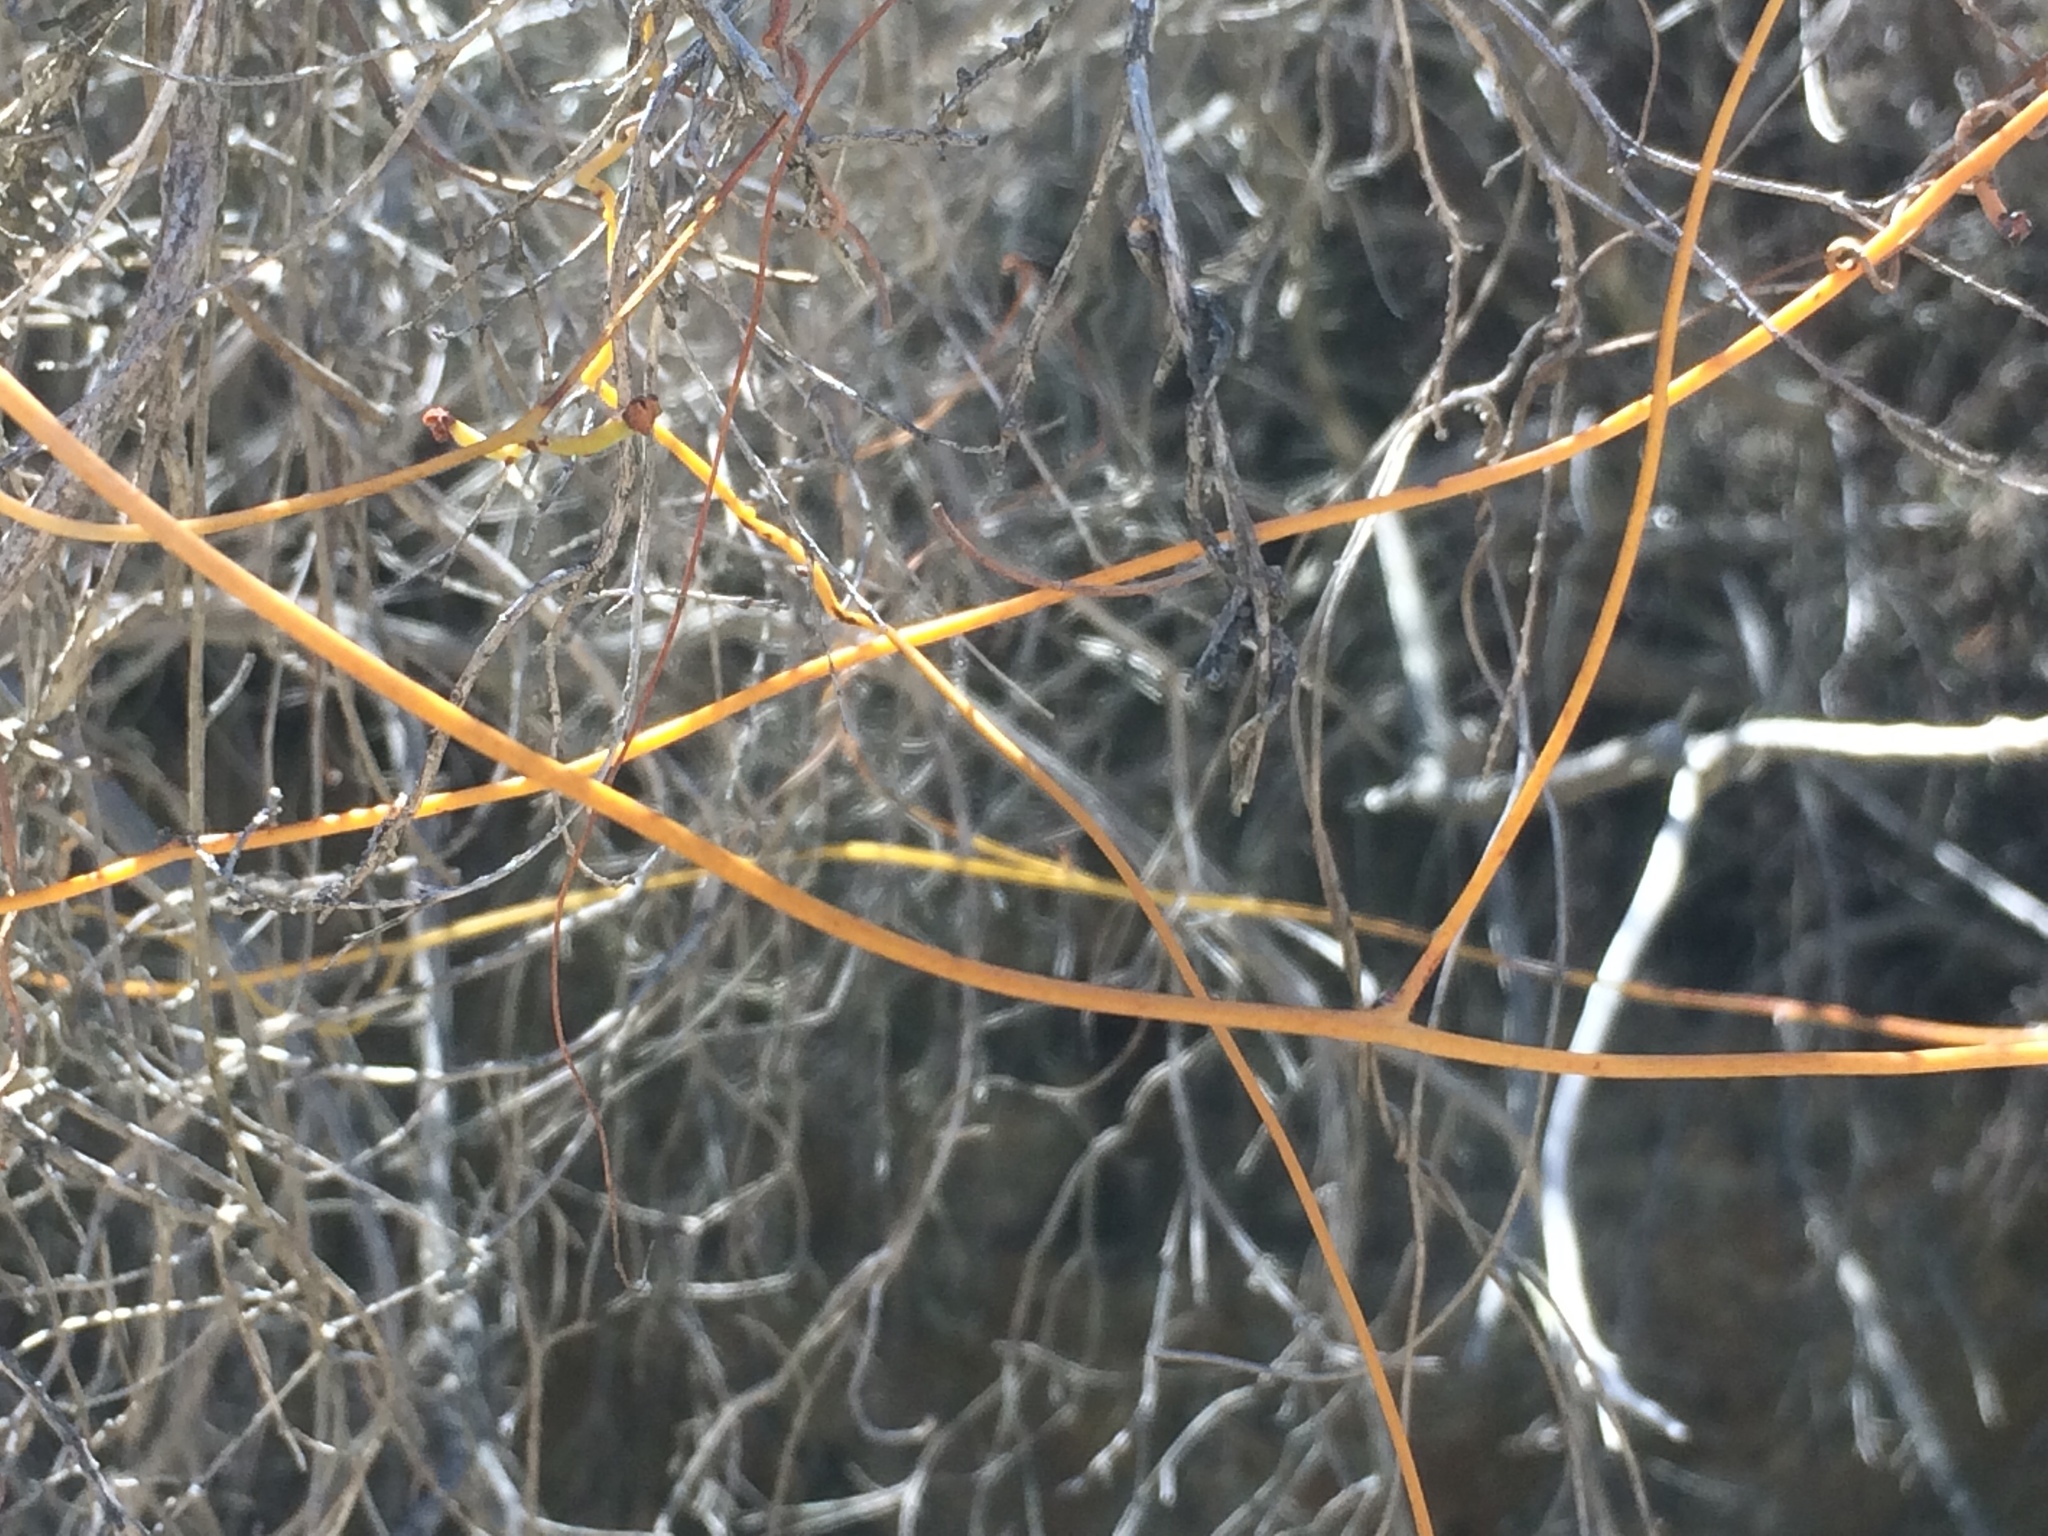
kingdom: Plantae
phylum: Tracheophyta
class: Magnoliopsida
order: Laurales
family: Lauraceae
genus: Cassytha
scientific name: Cassytha ciliolata
